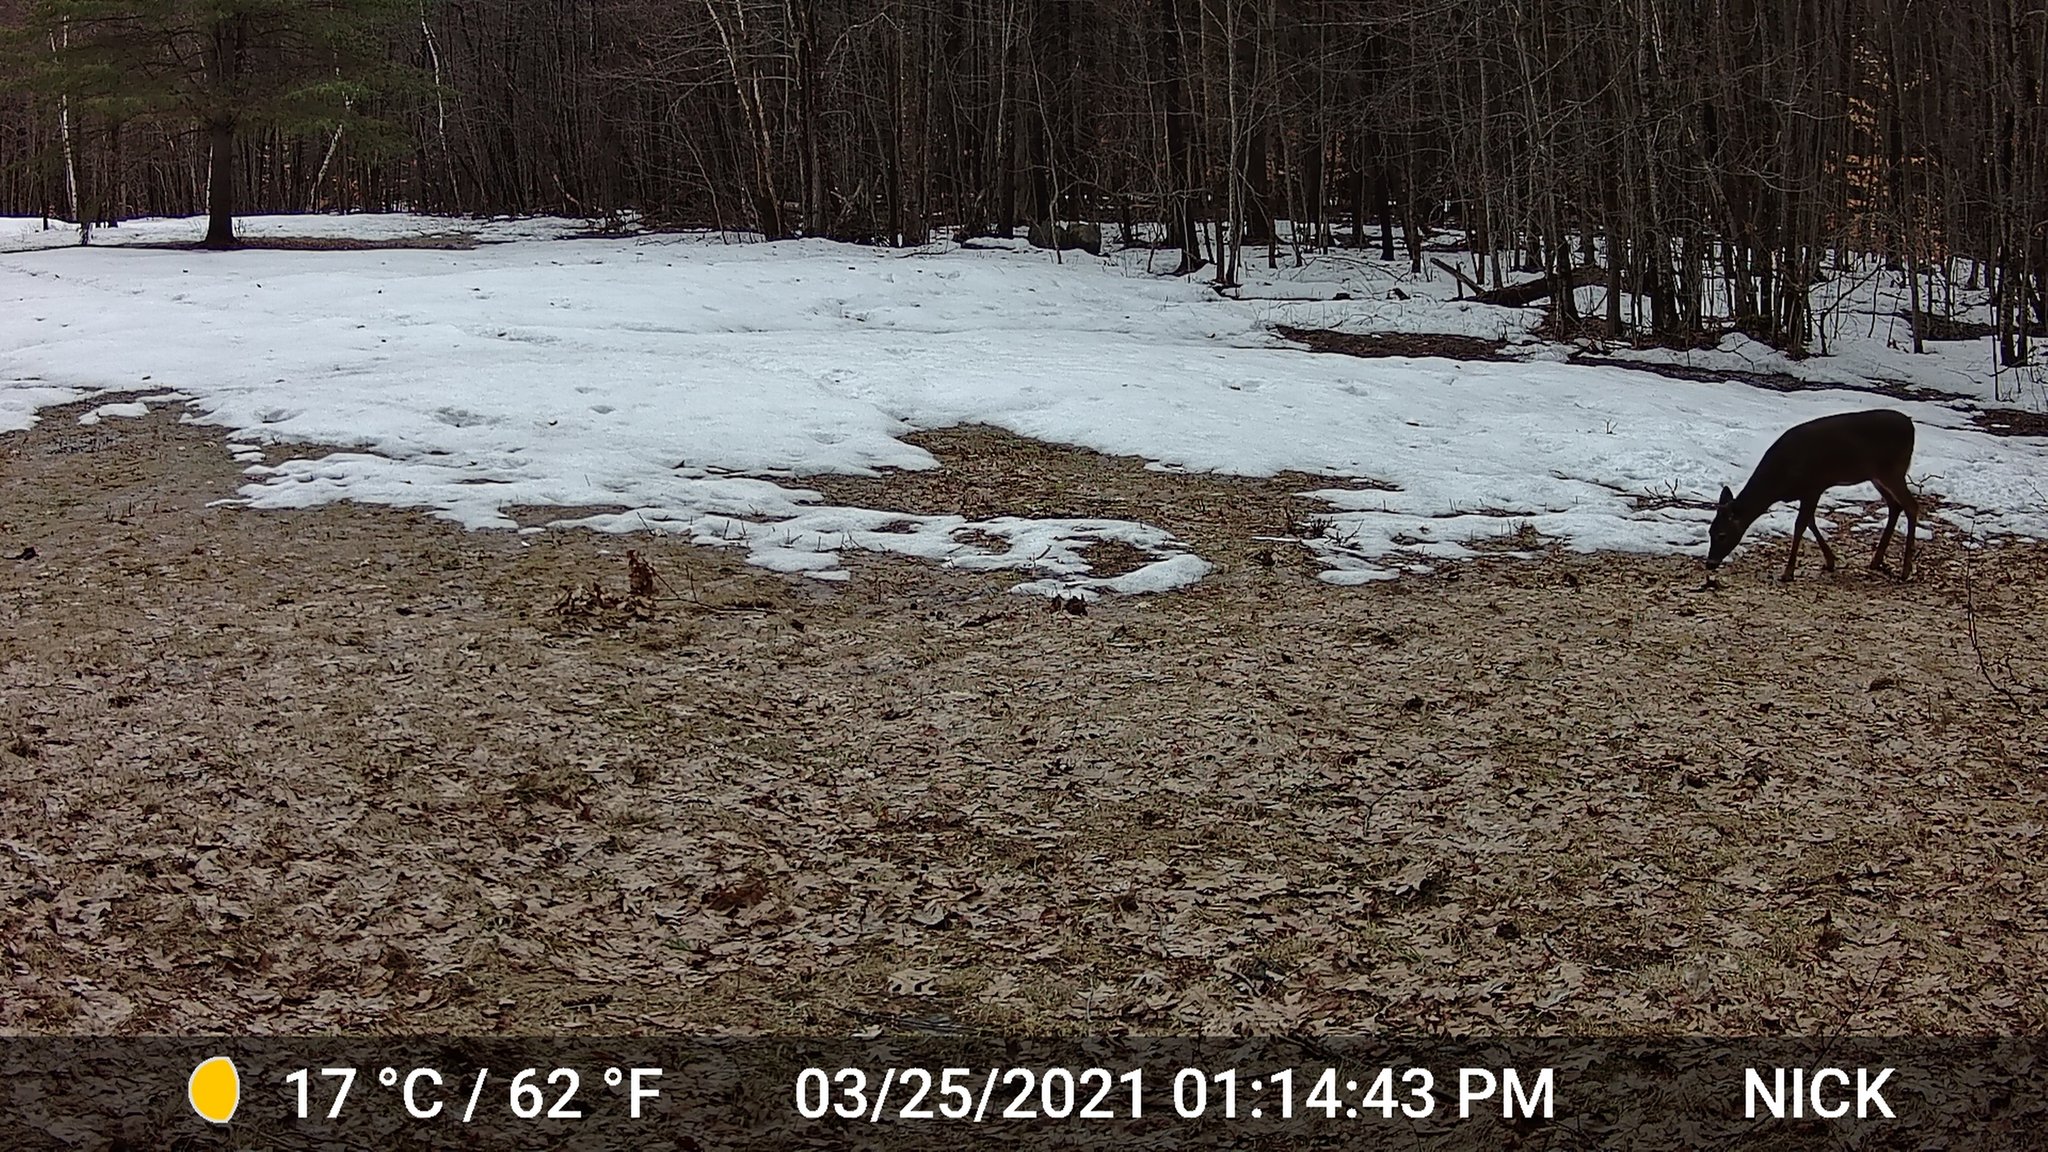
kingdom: Animalia
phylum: Chordata
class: Mammalia
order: Artiodactyla
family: Cervidae
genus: Odocoileus
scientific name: Odocoileus virginianus
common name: White-tailed deer
